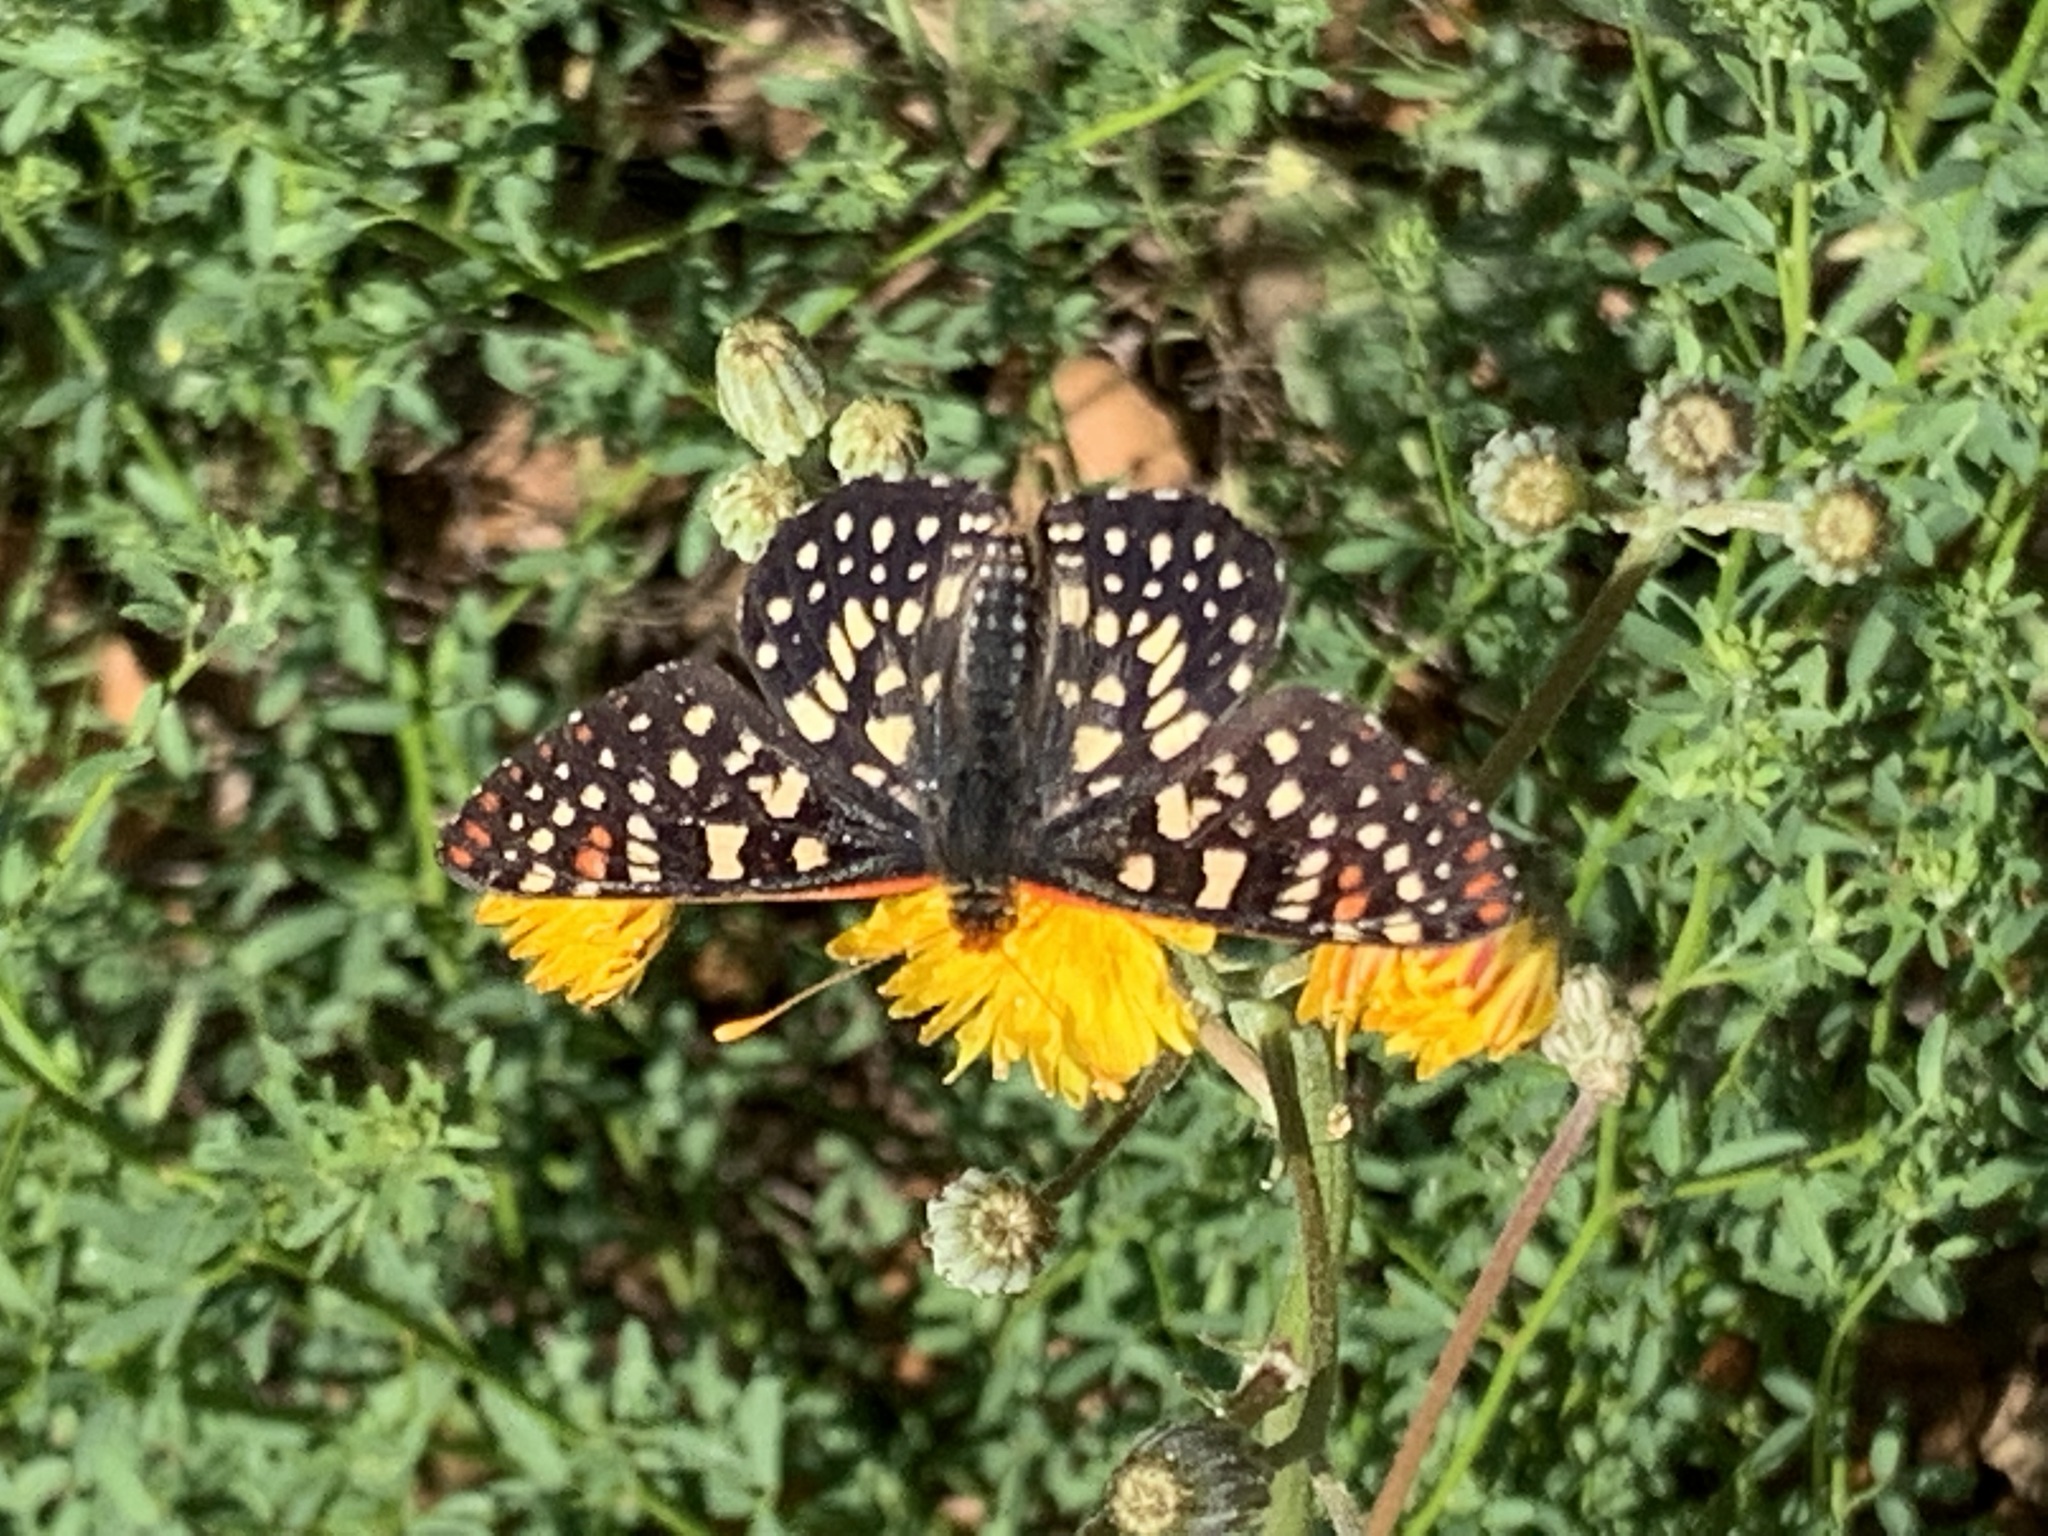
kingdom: Animalia
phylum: Arthropoda
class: Insecta
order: Lepidoptera
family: Nymphalidae
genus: Occidryas
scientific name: Occidryas chalcedona
